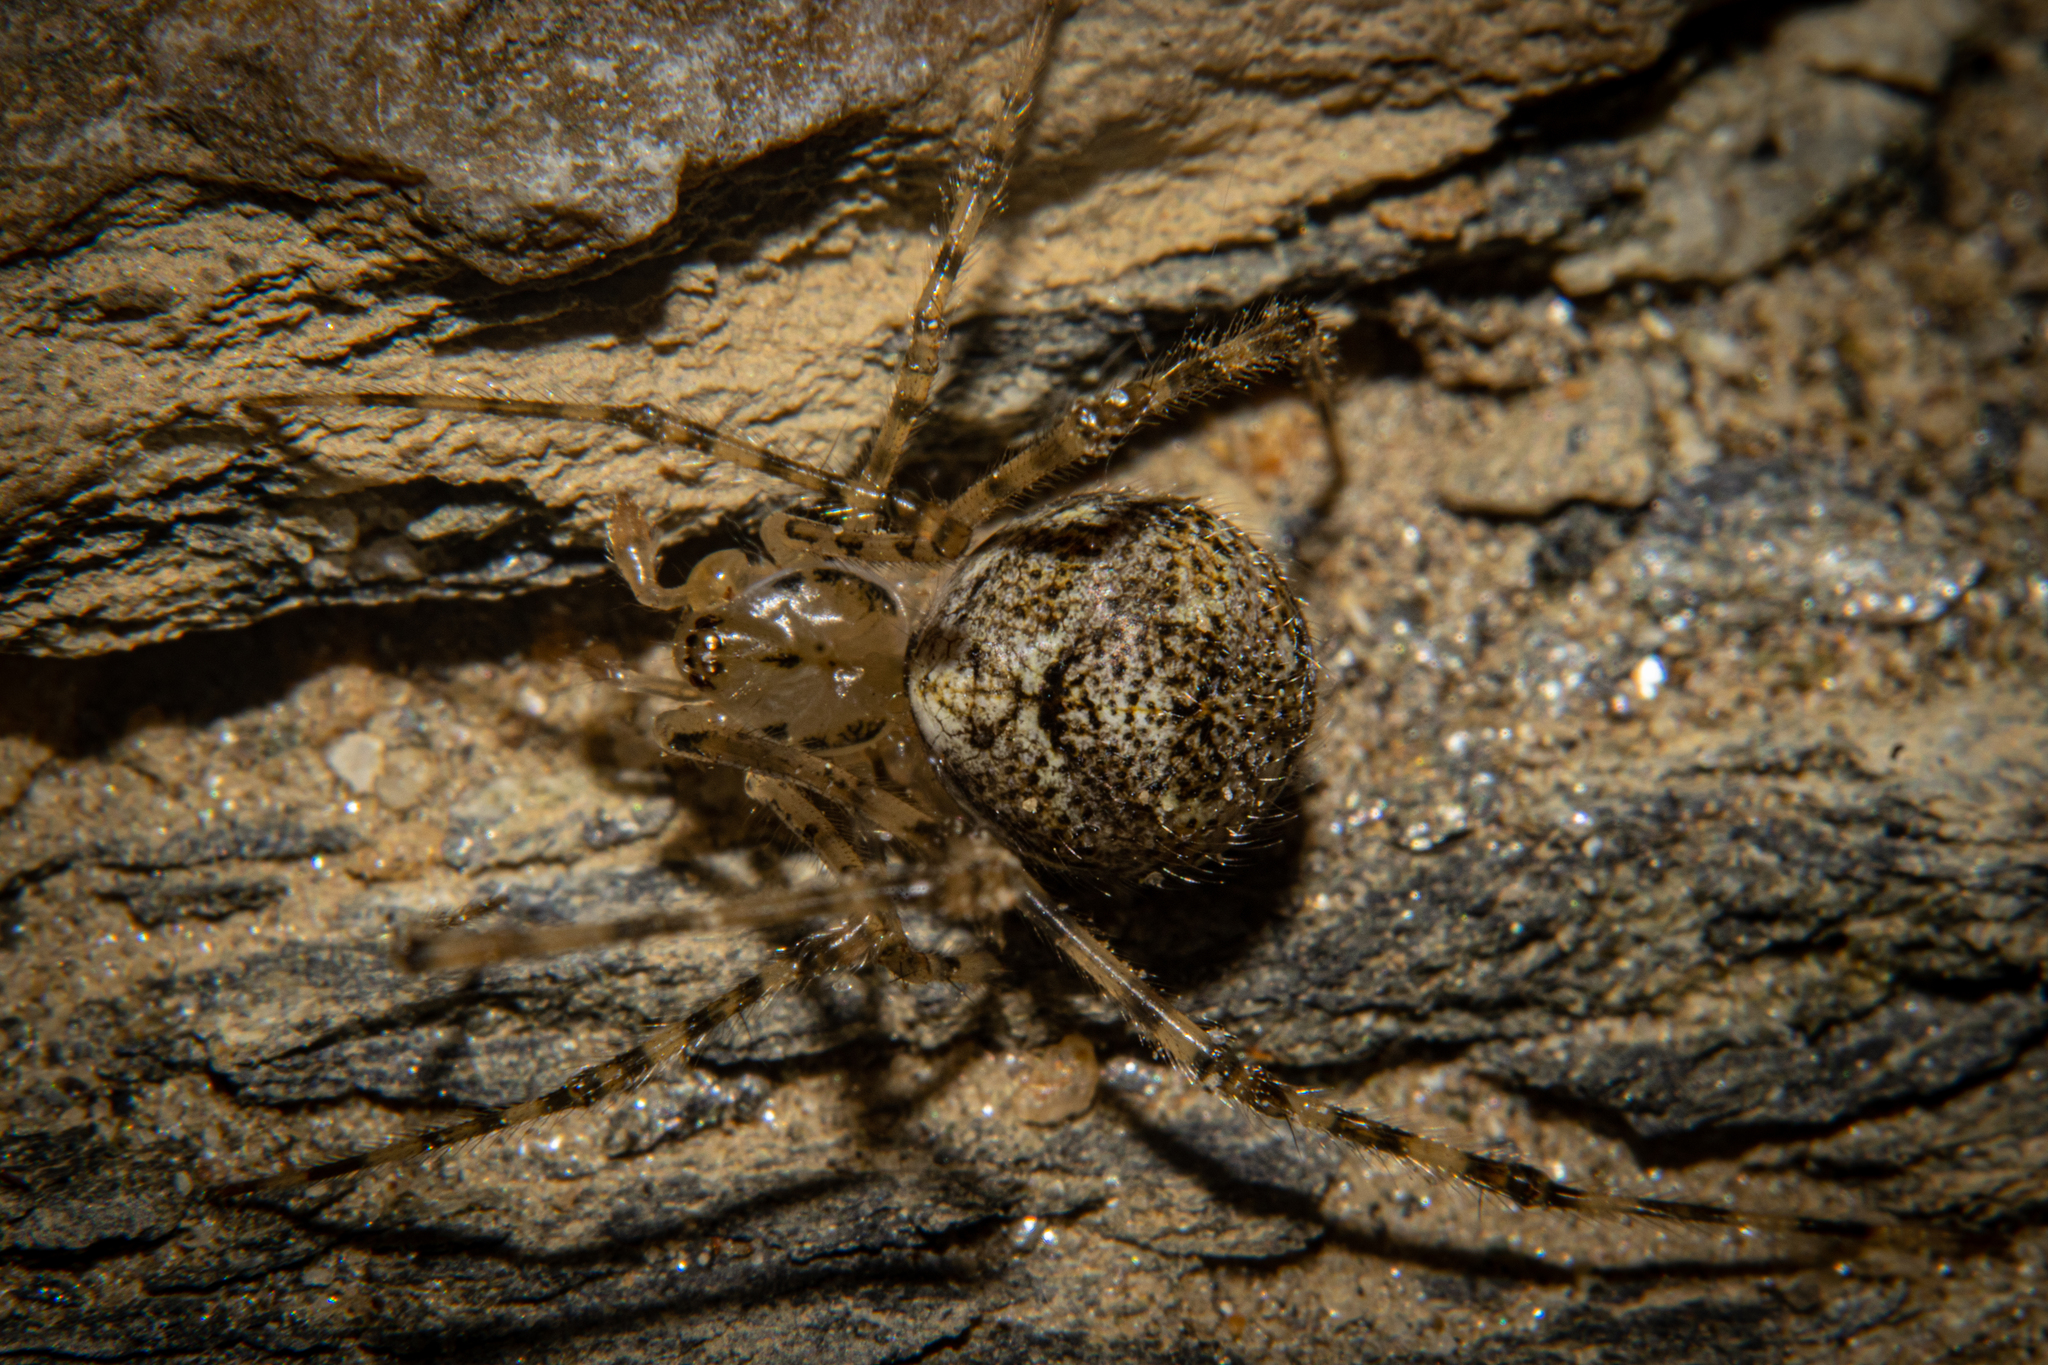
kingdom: Animalia
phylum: Arthropoda
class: Arachnida
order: Araneae
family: Theridiidae
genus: Cryptachaea
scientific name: Cryptachaea gigantipes
